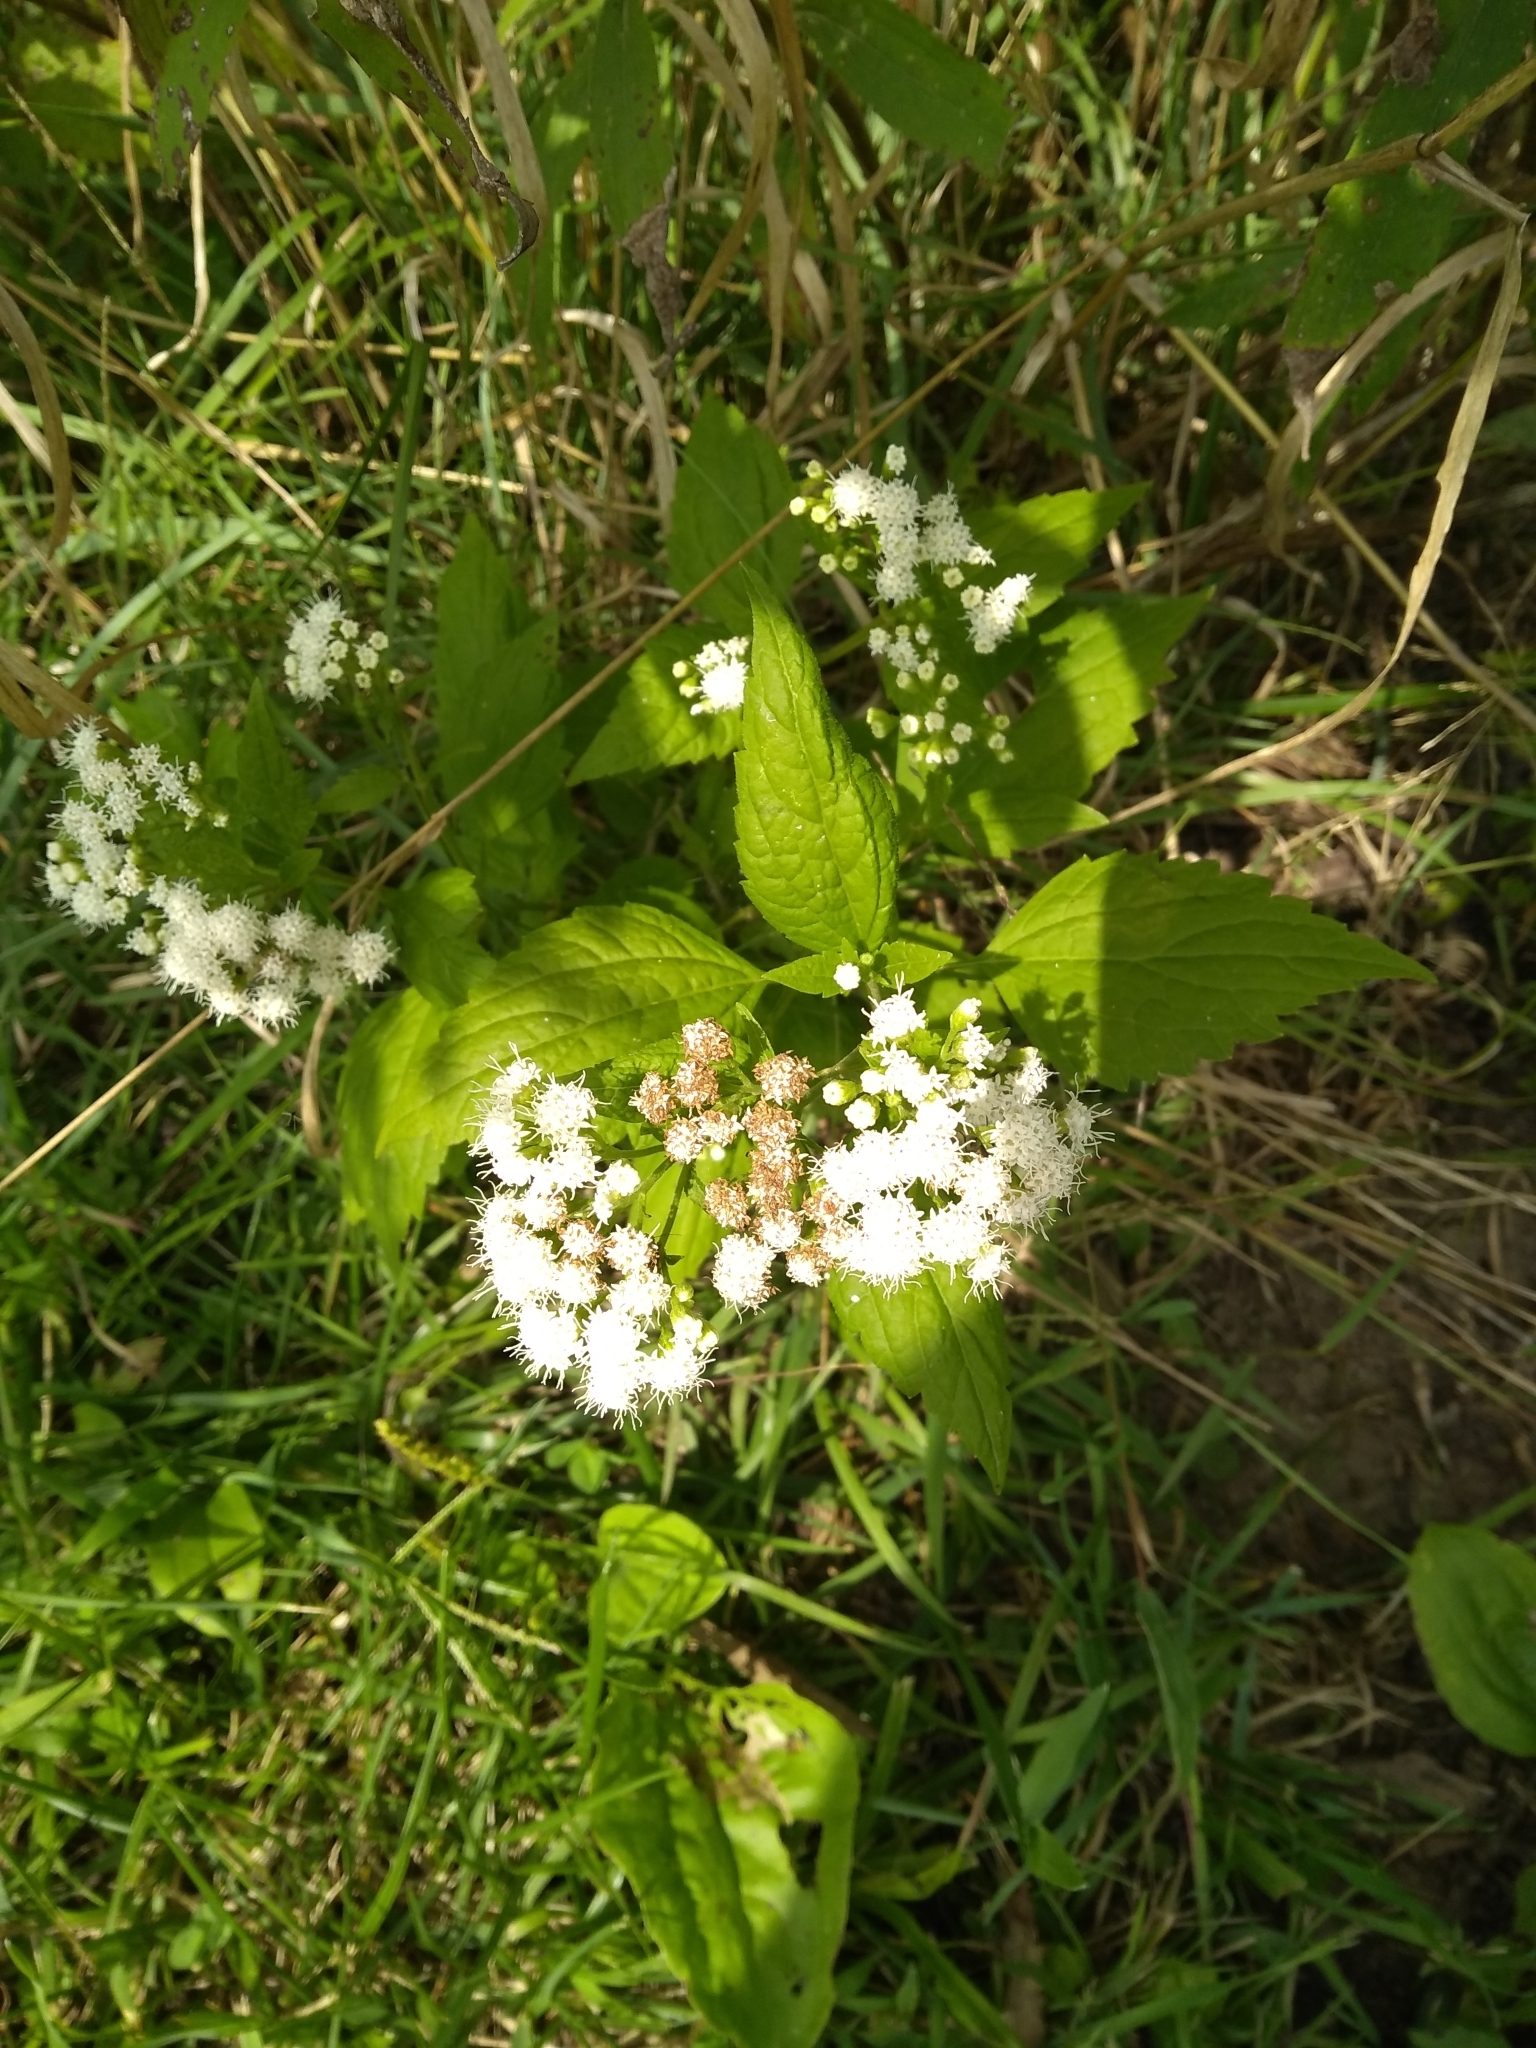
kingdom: Plantae
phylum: Tracheophyta
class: Magnoliopsida
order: Asterales
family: Asteraceae
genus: Ageratina
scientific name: Ageratina altissima
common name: White snakeroot
